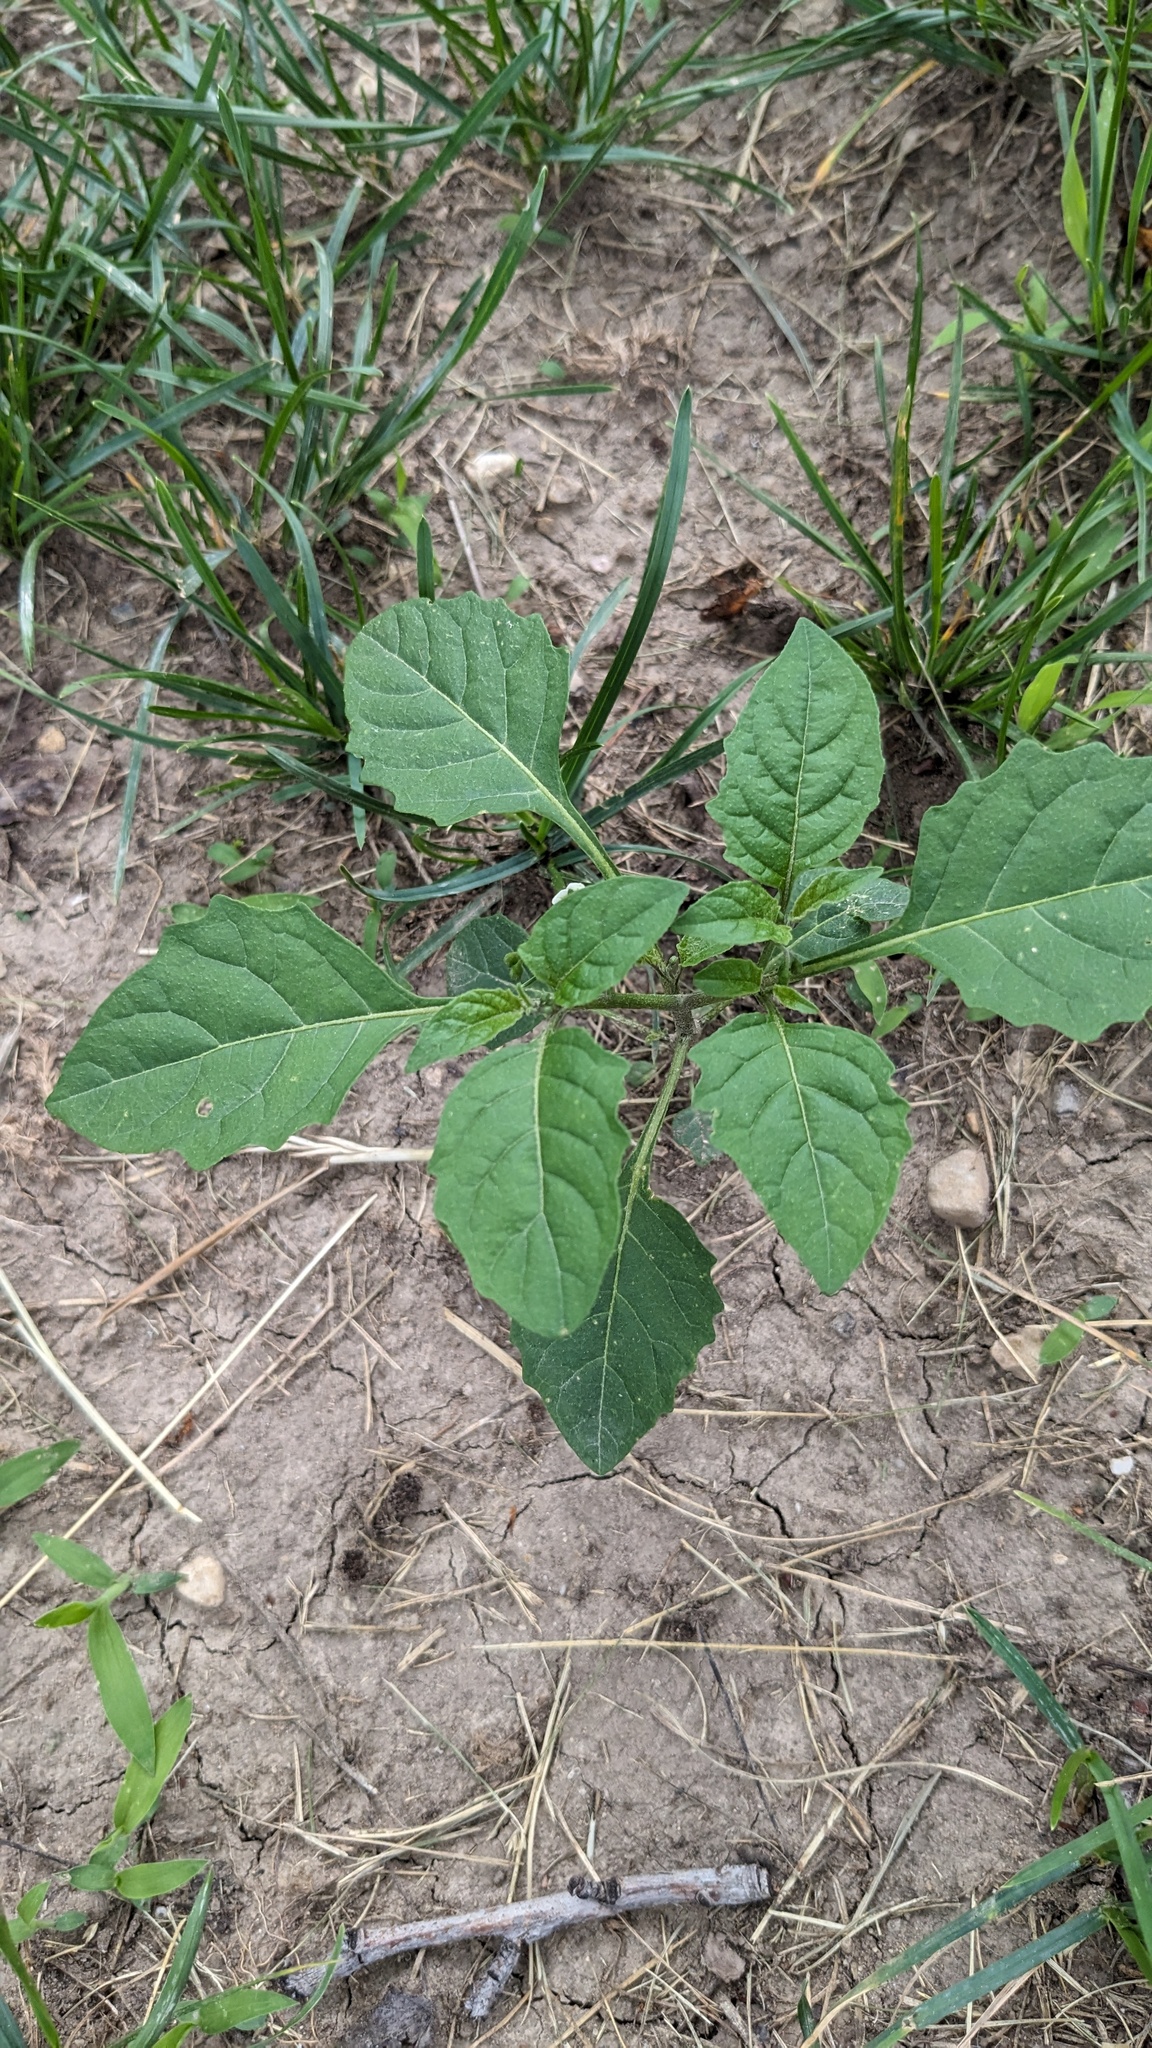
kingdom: Plantae
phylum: Tracheophyta
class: Magnoliopsida
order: Solanales
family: Solanaceae
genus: Solanum
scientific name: Solanum emulans
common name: Eastern black nightshade
